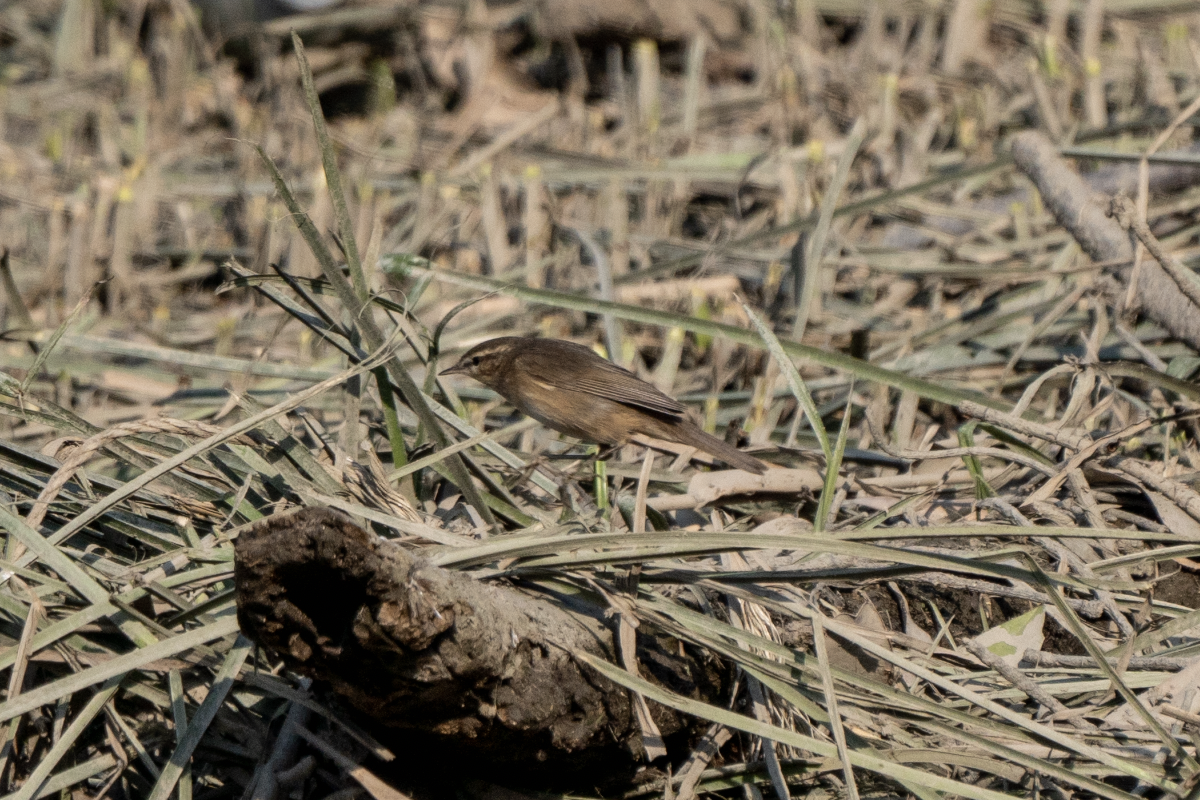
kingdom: Animalia
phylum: Chordata
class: Aves
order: Passeriformes
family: Phylloscopidae
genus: Phylloscopus
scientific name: Phylloscopus fuscatus
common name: Dusky warbler
